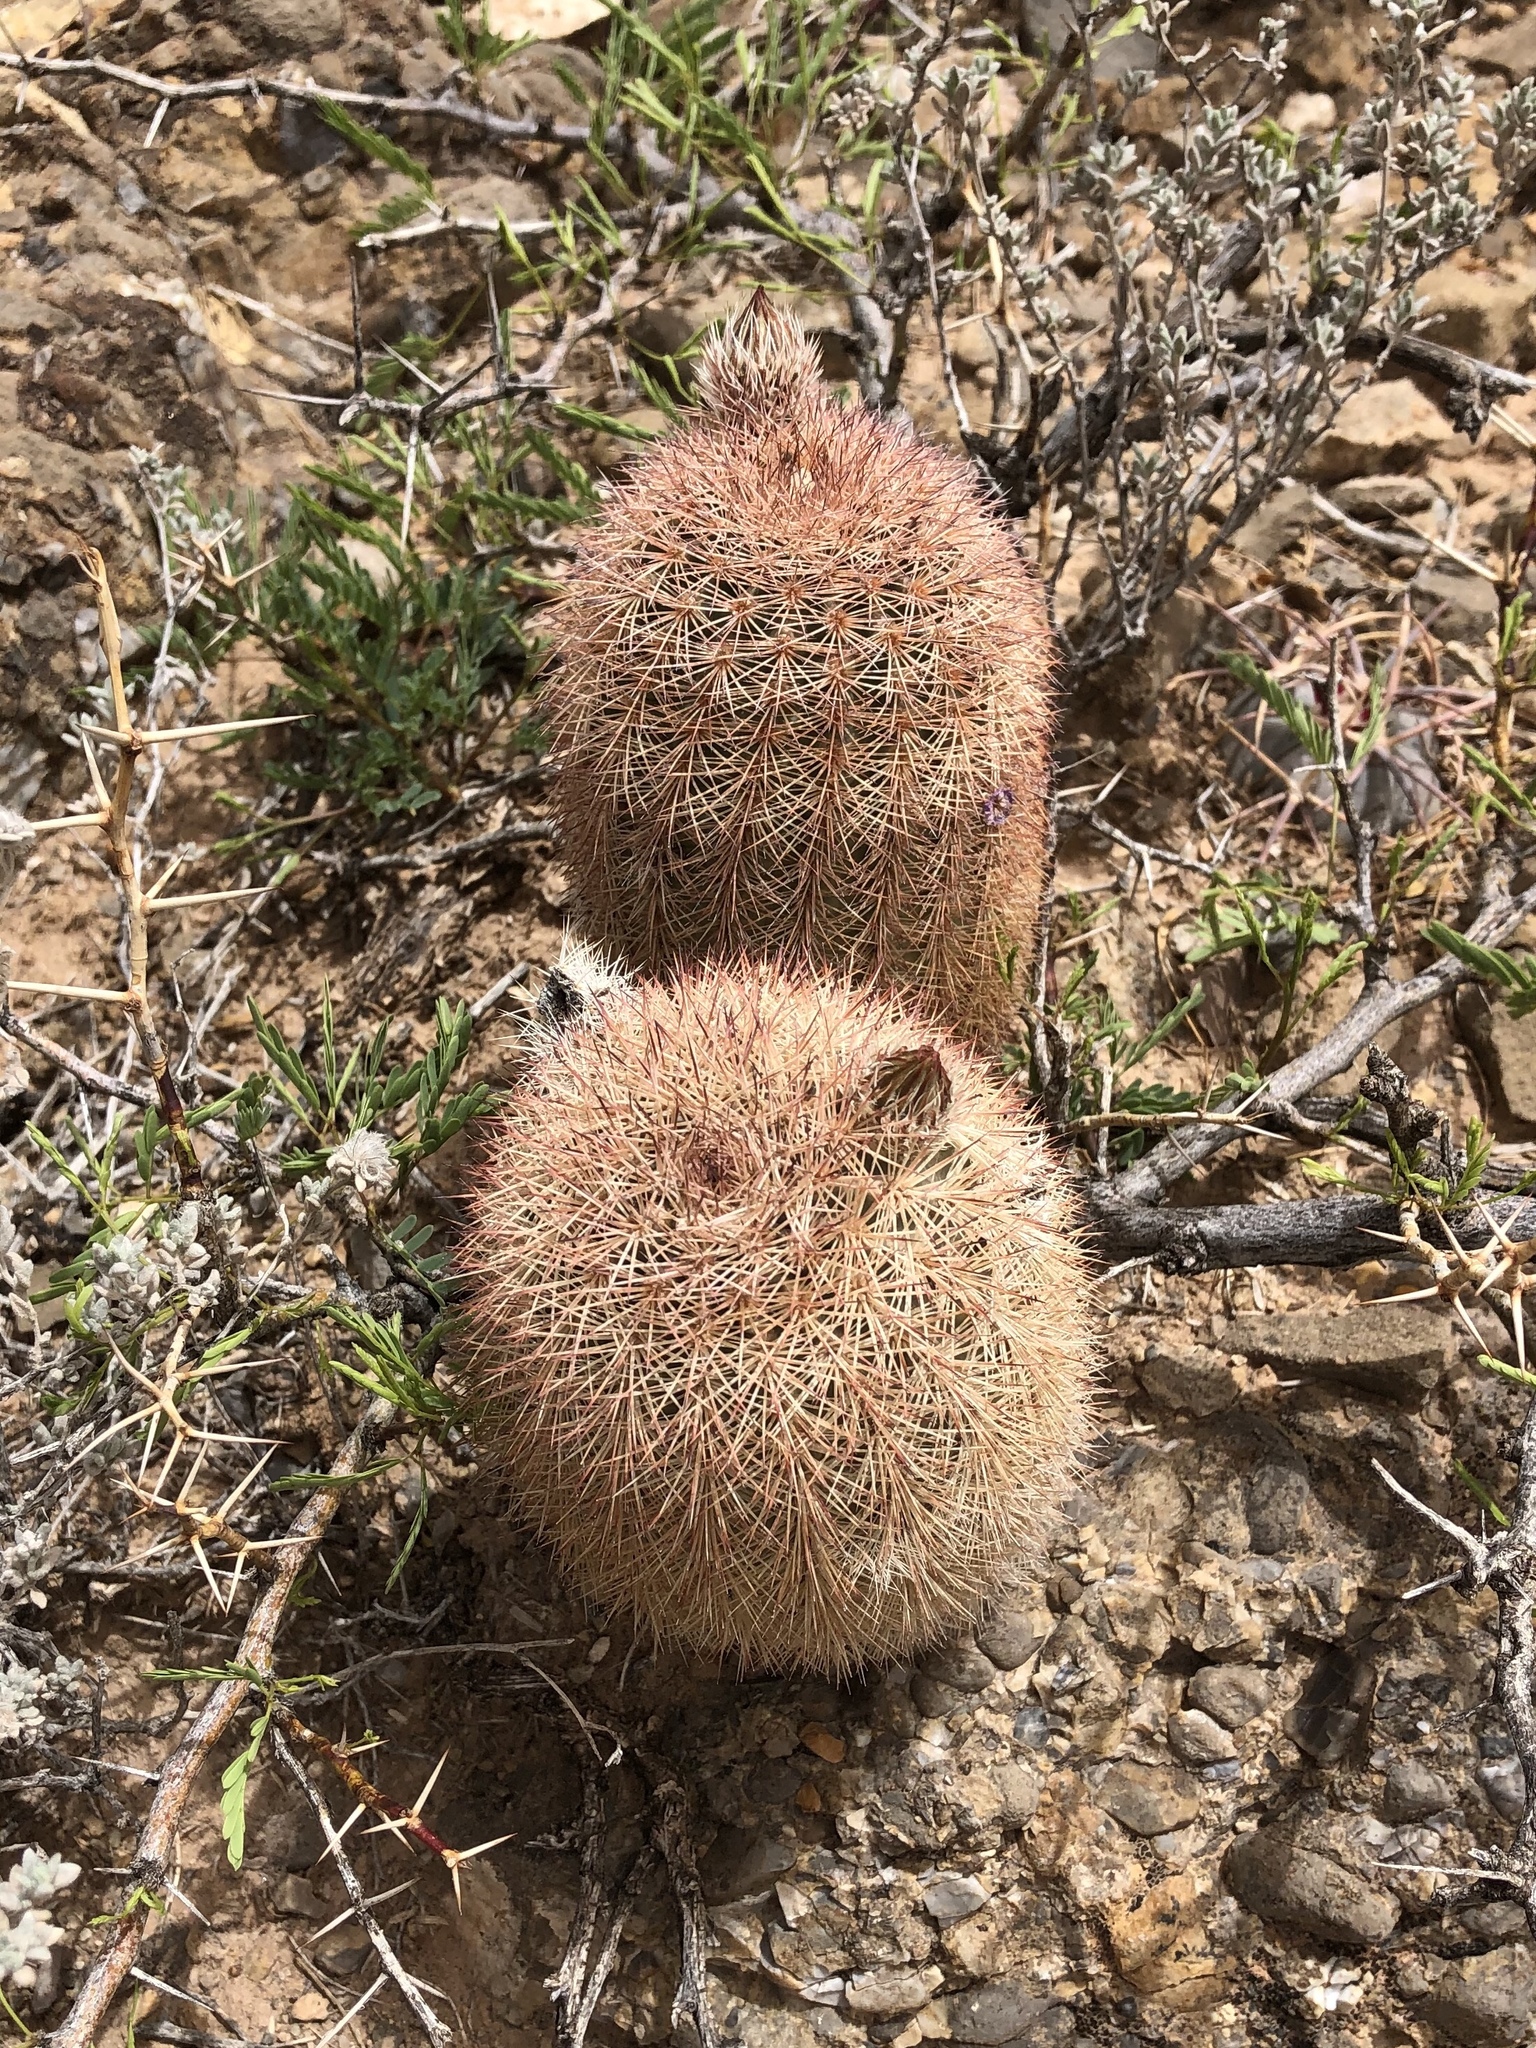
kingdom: Plantae
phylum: Tracheophyta
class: Magnoliopsida
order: Caryophyllales
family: Cactaceae
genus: Echinocereus
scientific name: Echinocereus dasyacanthus
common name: Spiny hedgehog cactus
